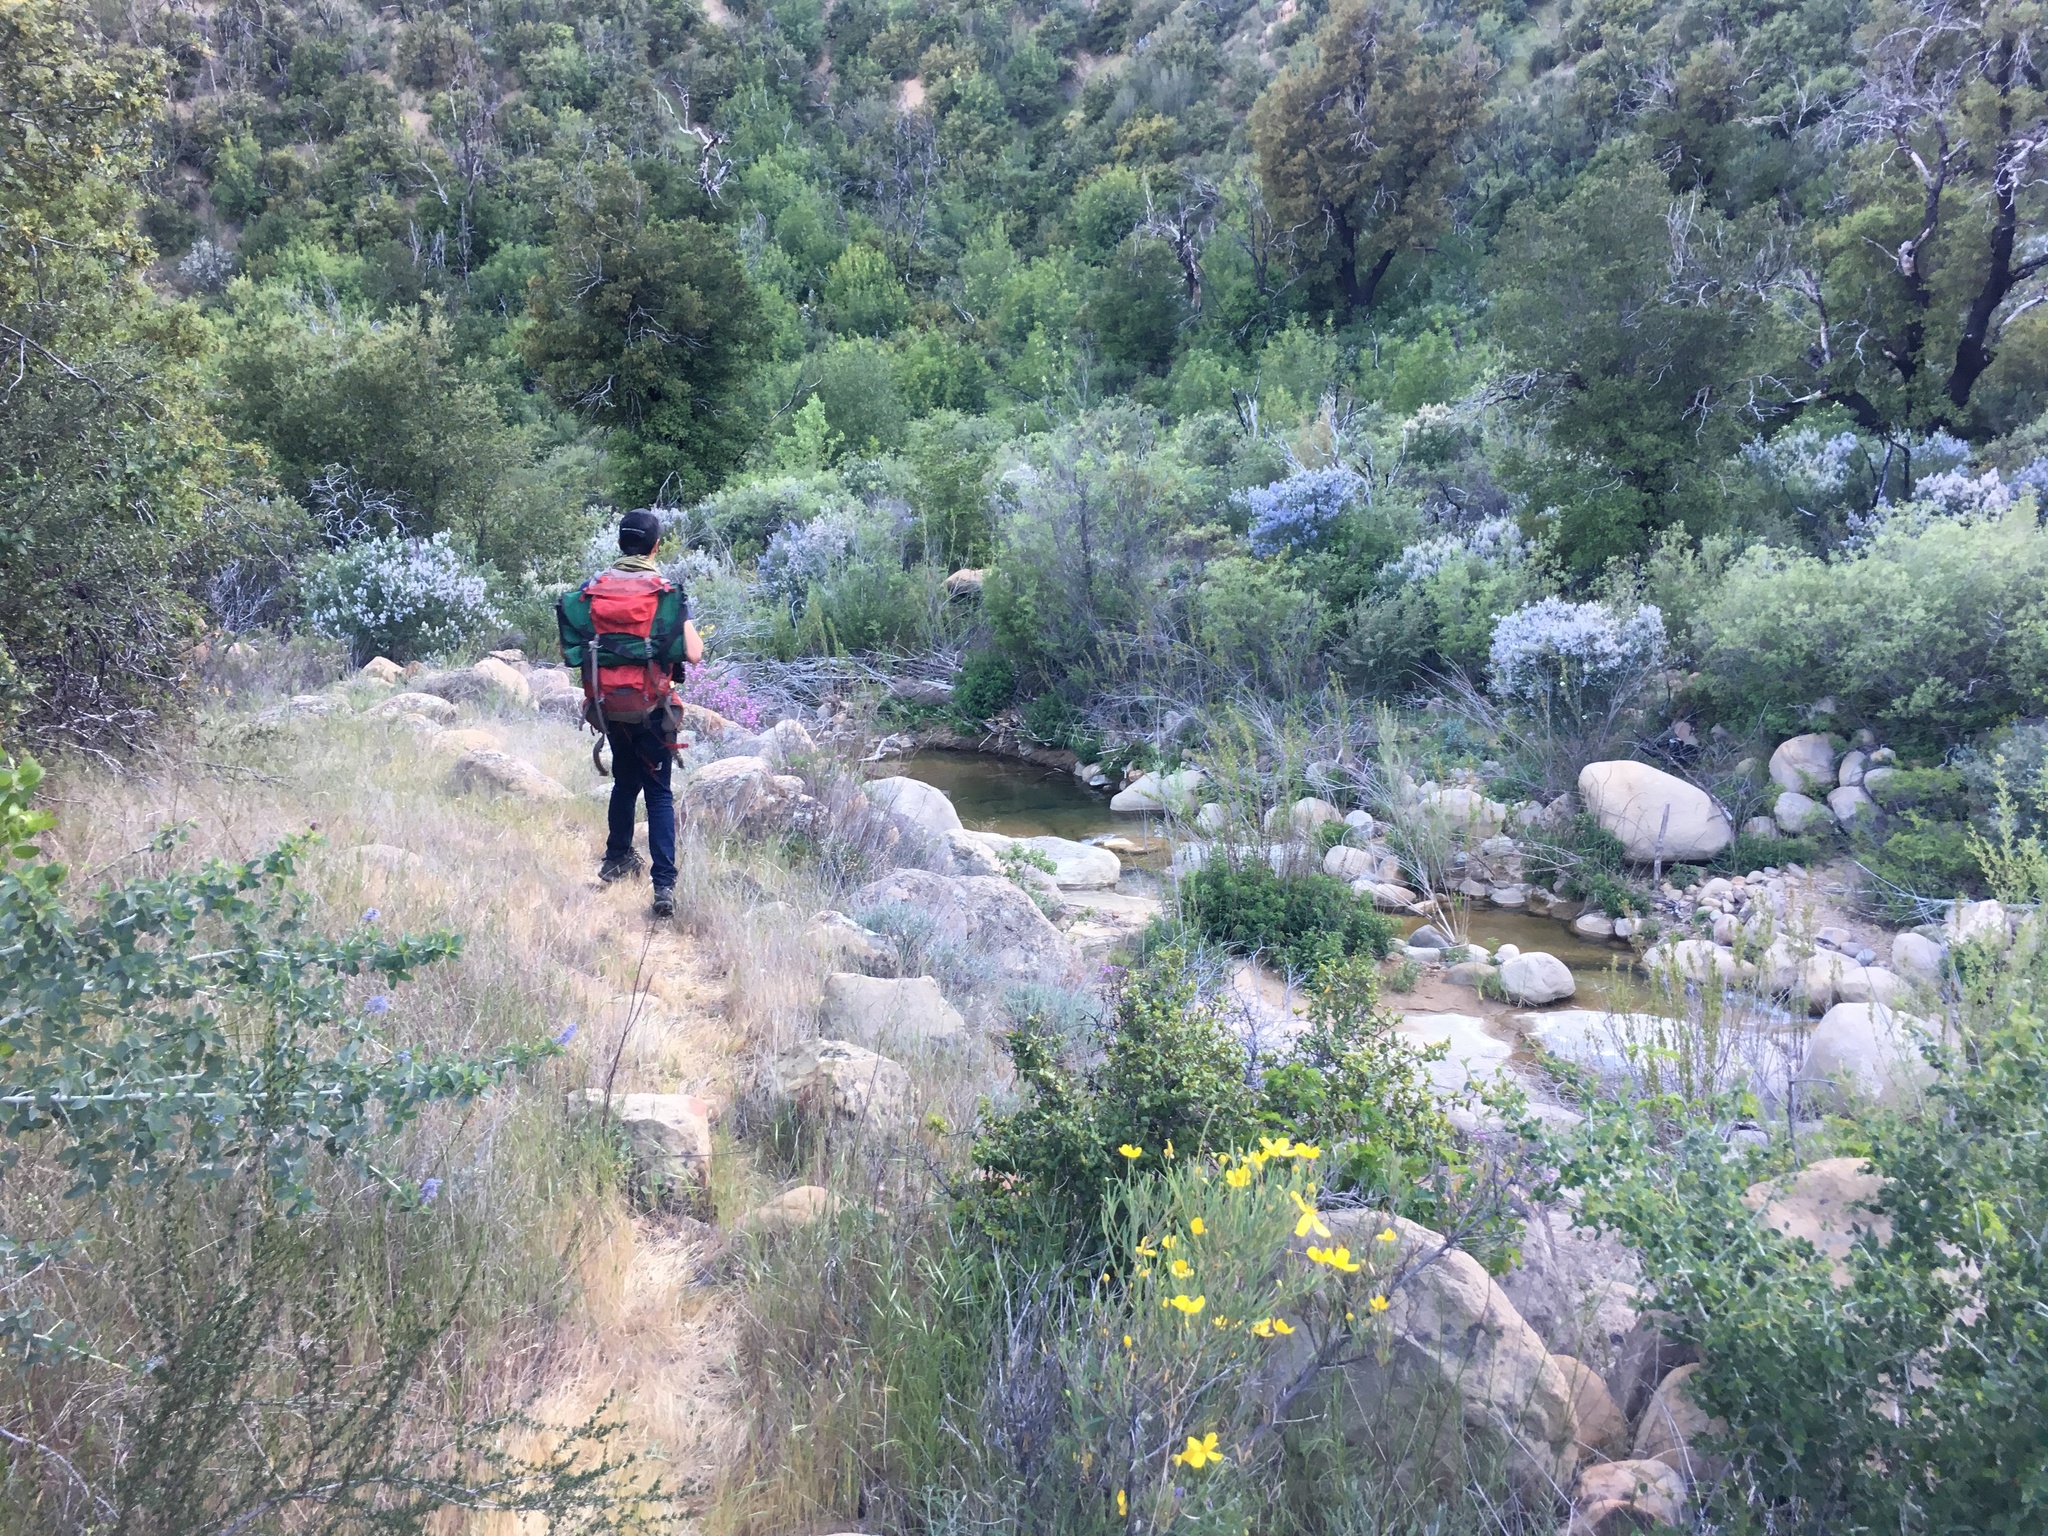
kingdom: Plantae
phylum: Tracheophyta
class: Magnoliopsida
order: Ranunculales
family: Papaveraceae
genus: Dendromecon
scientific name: Dendromecon rigida
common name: Tree poppy
